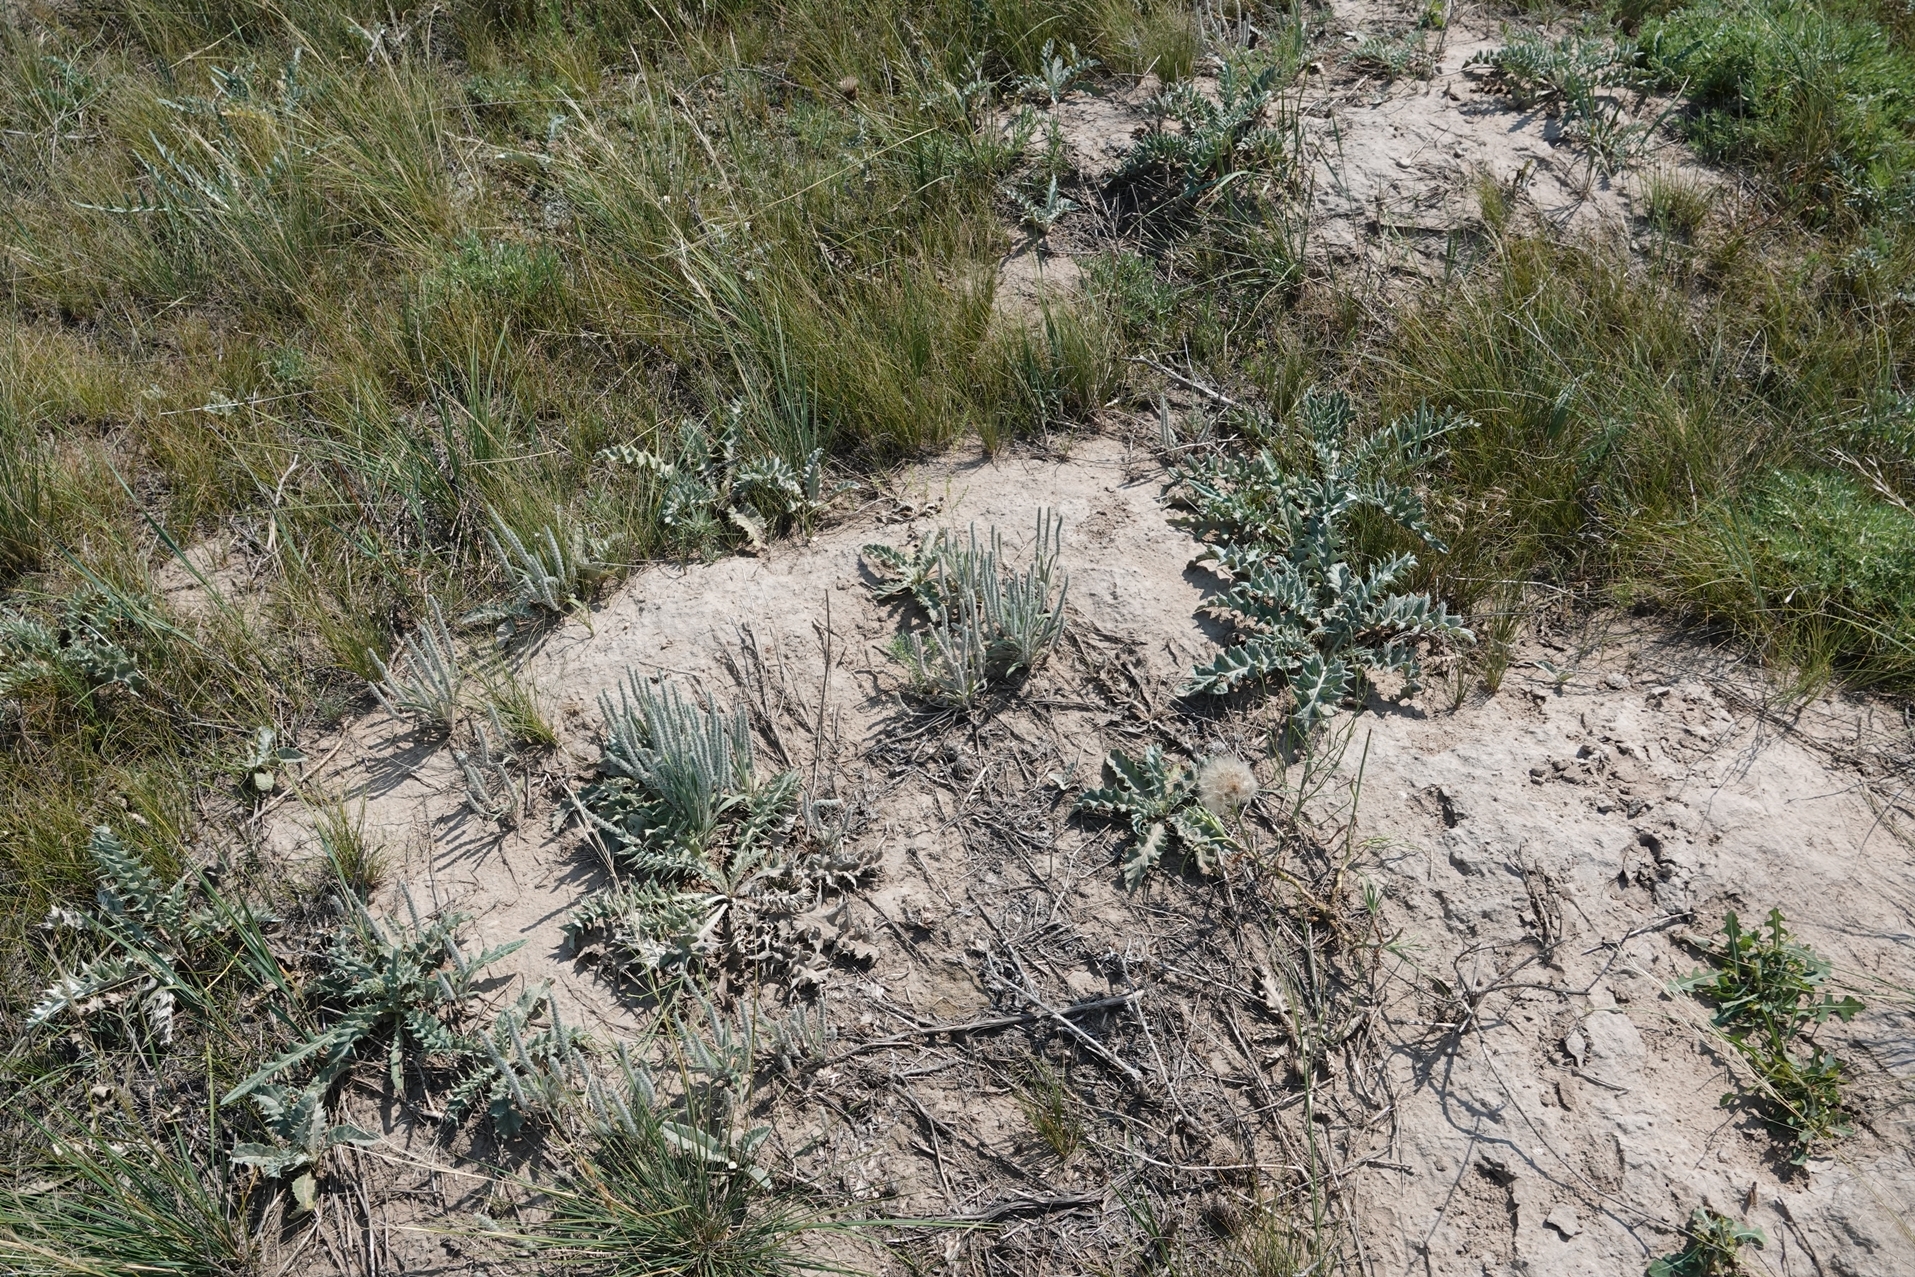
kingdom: Plantae
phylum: Tracheophyta
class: Magnoliopsida
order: Lamiales
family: Plantaginaceae
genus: Plantago
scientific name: Plantago patagonica
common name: Patagonia indian-wheat
